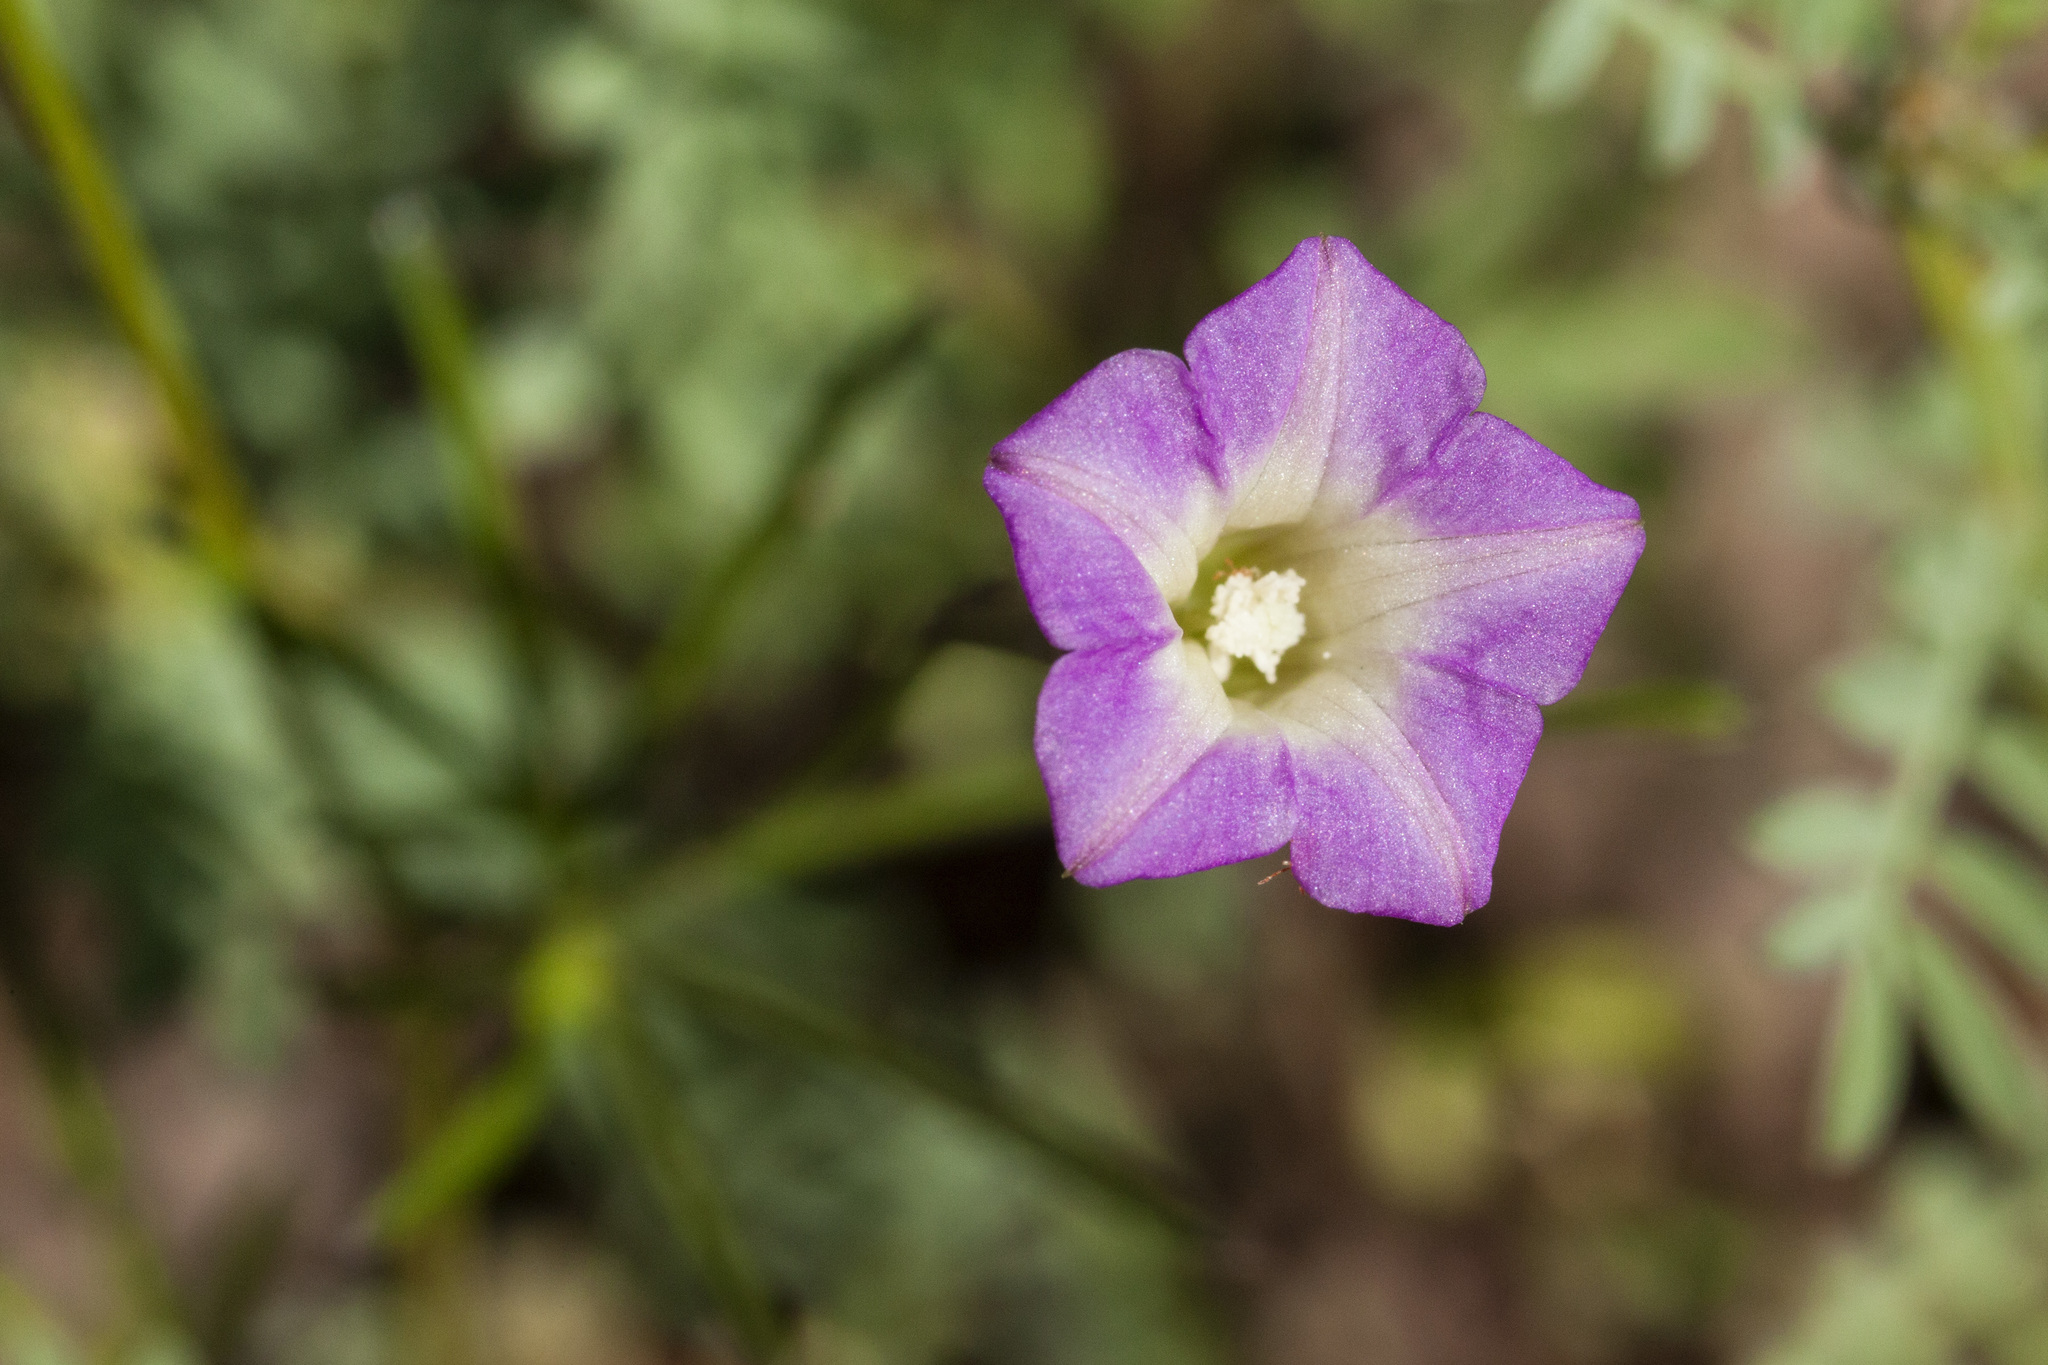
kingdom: Plantae
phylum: Tracheophyta
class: Magnoliopsida
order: Solanales
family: Convolvulaceae
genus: Ipomoea
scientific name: Ipomoea costellata
